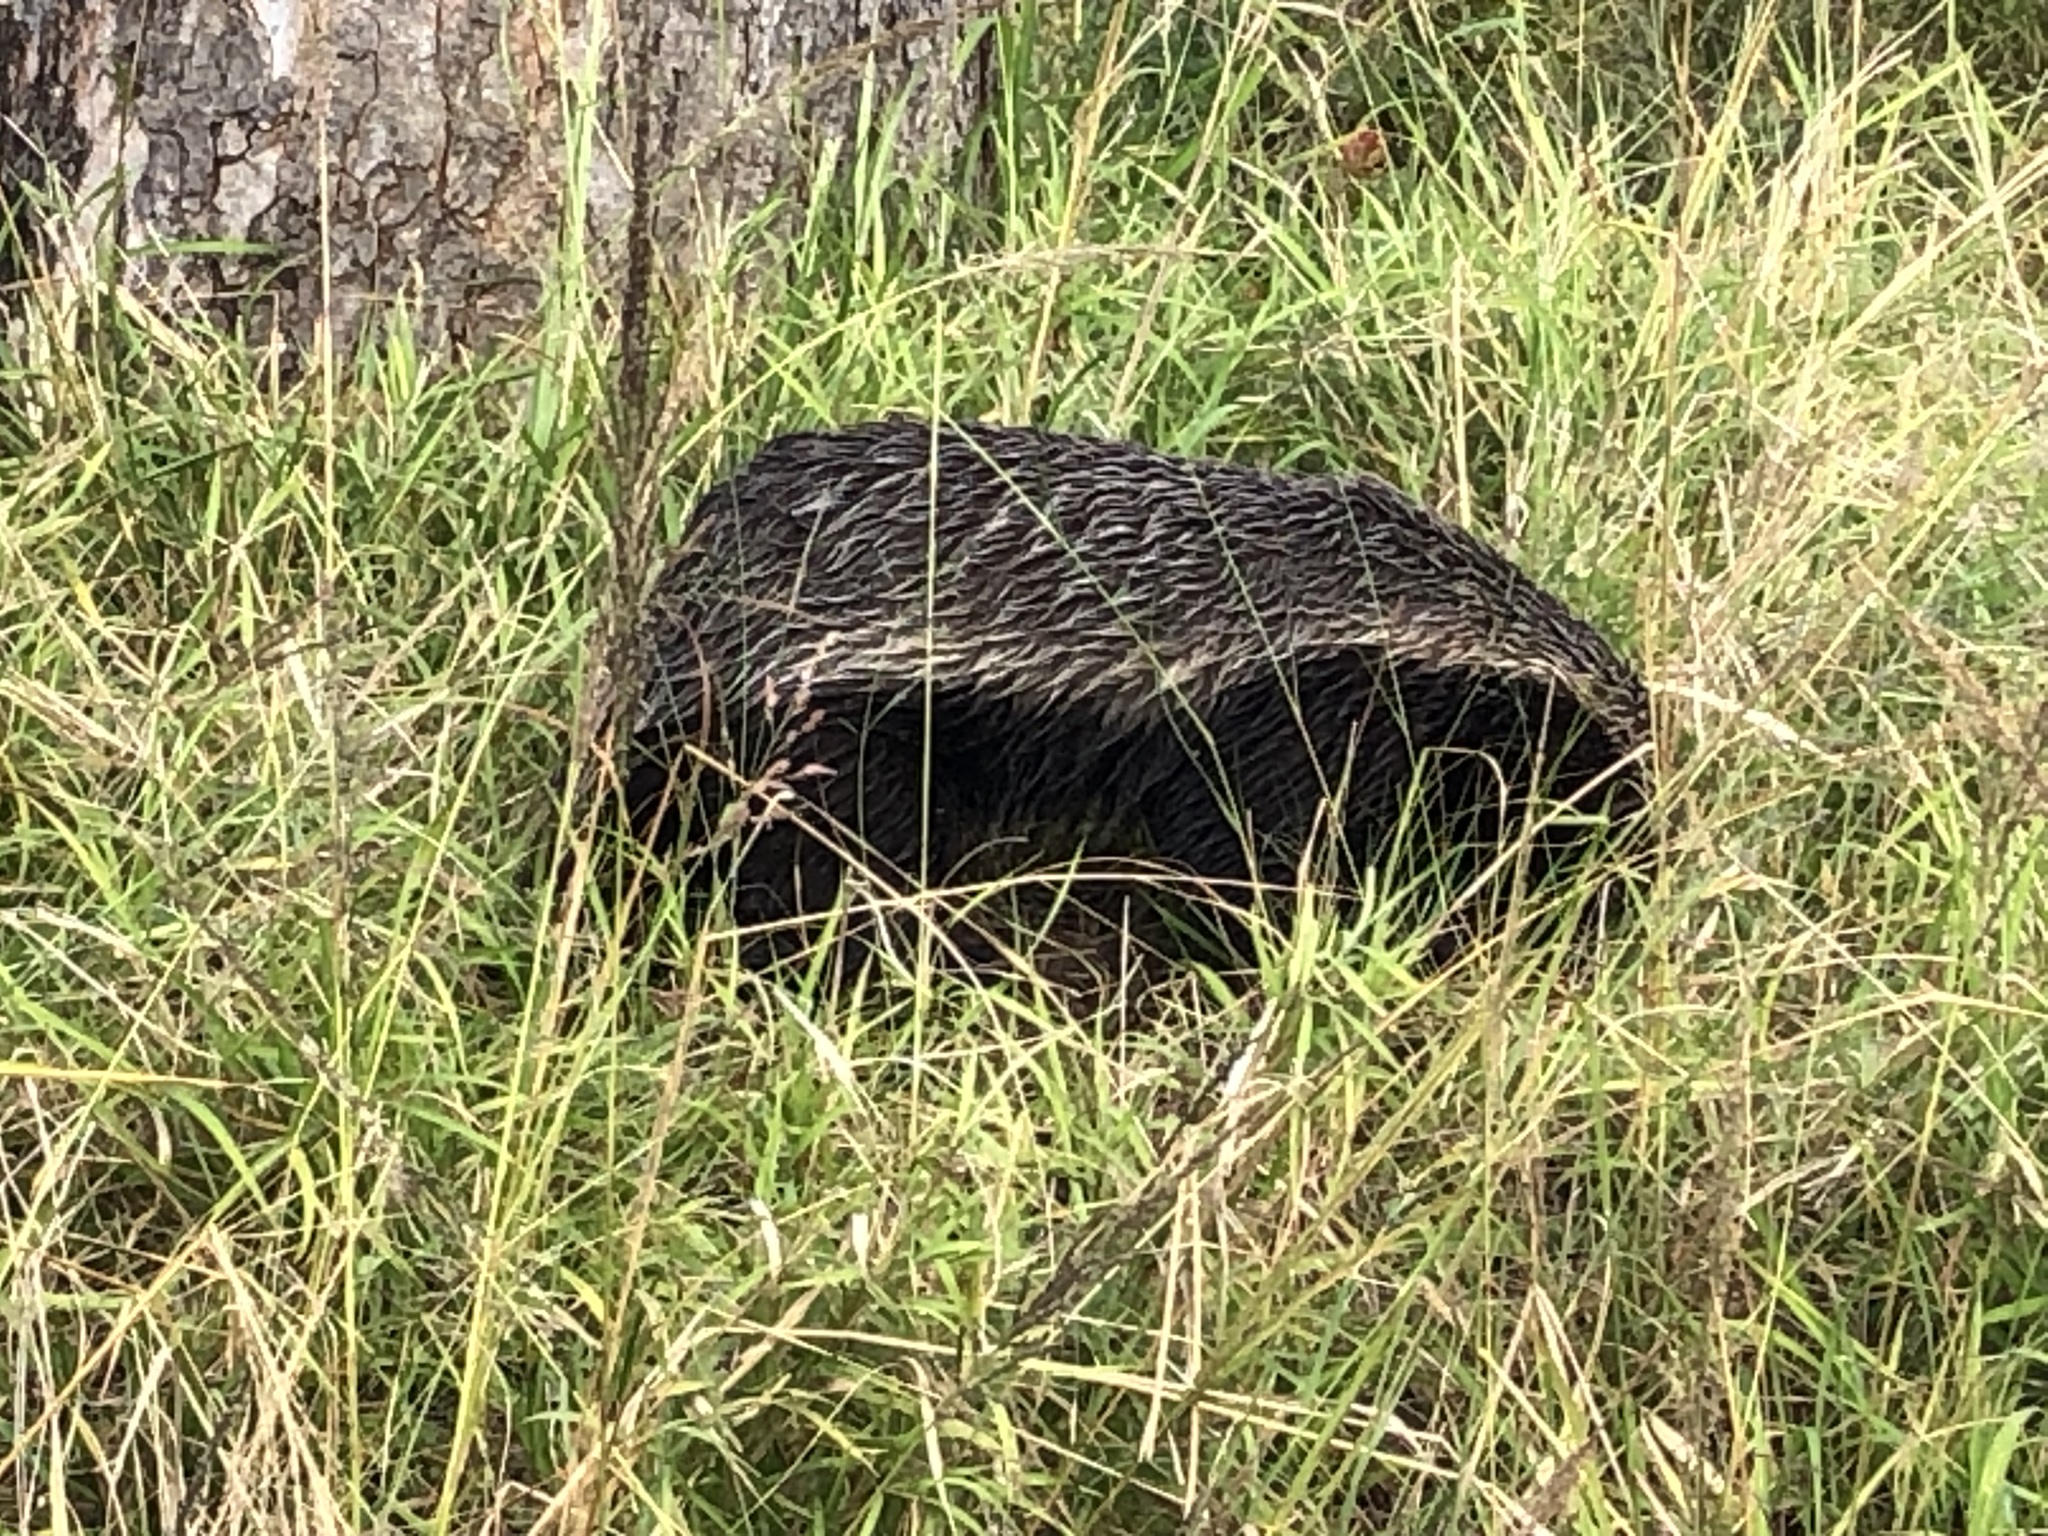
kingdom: Animalia
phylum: Chordata
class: Mammalia
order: Carnivora
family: Mustelidae
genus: Mellivora
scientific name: Mellivora capensis
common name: Honey badger
